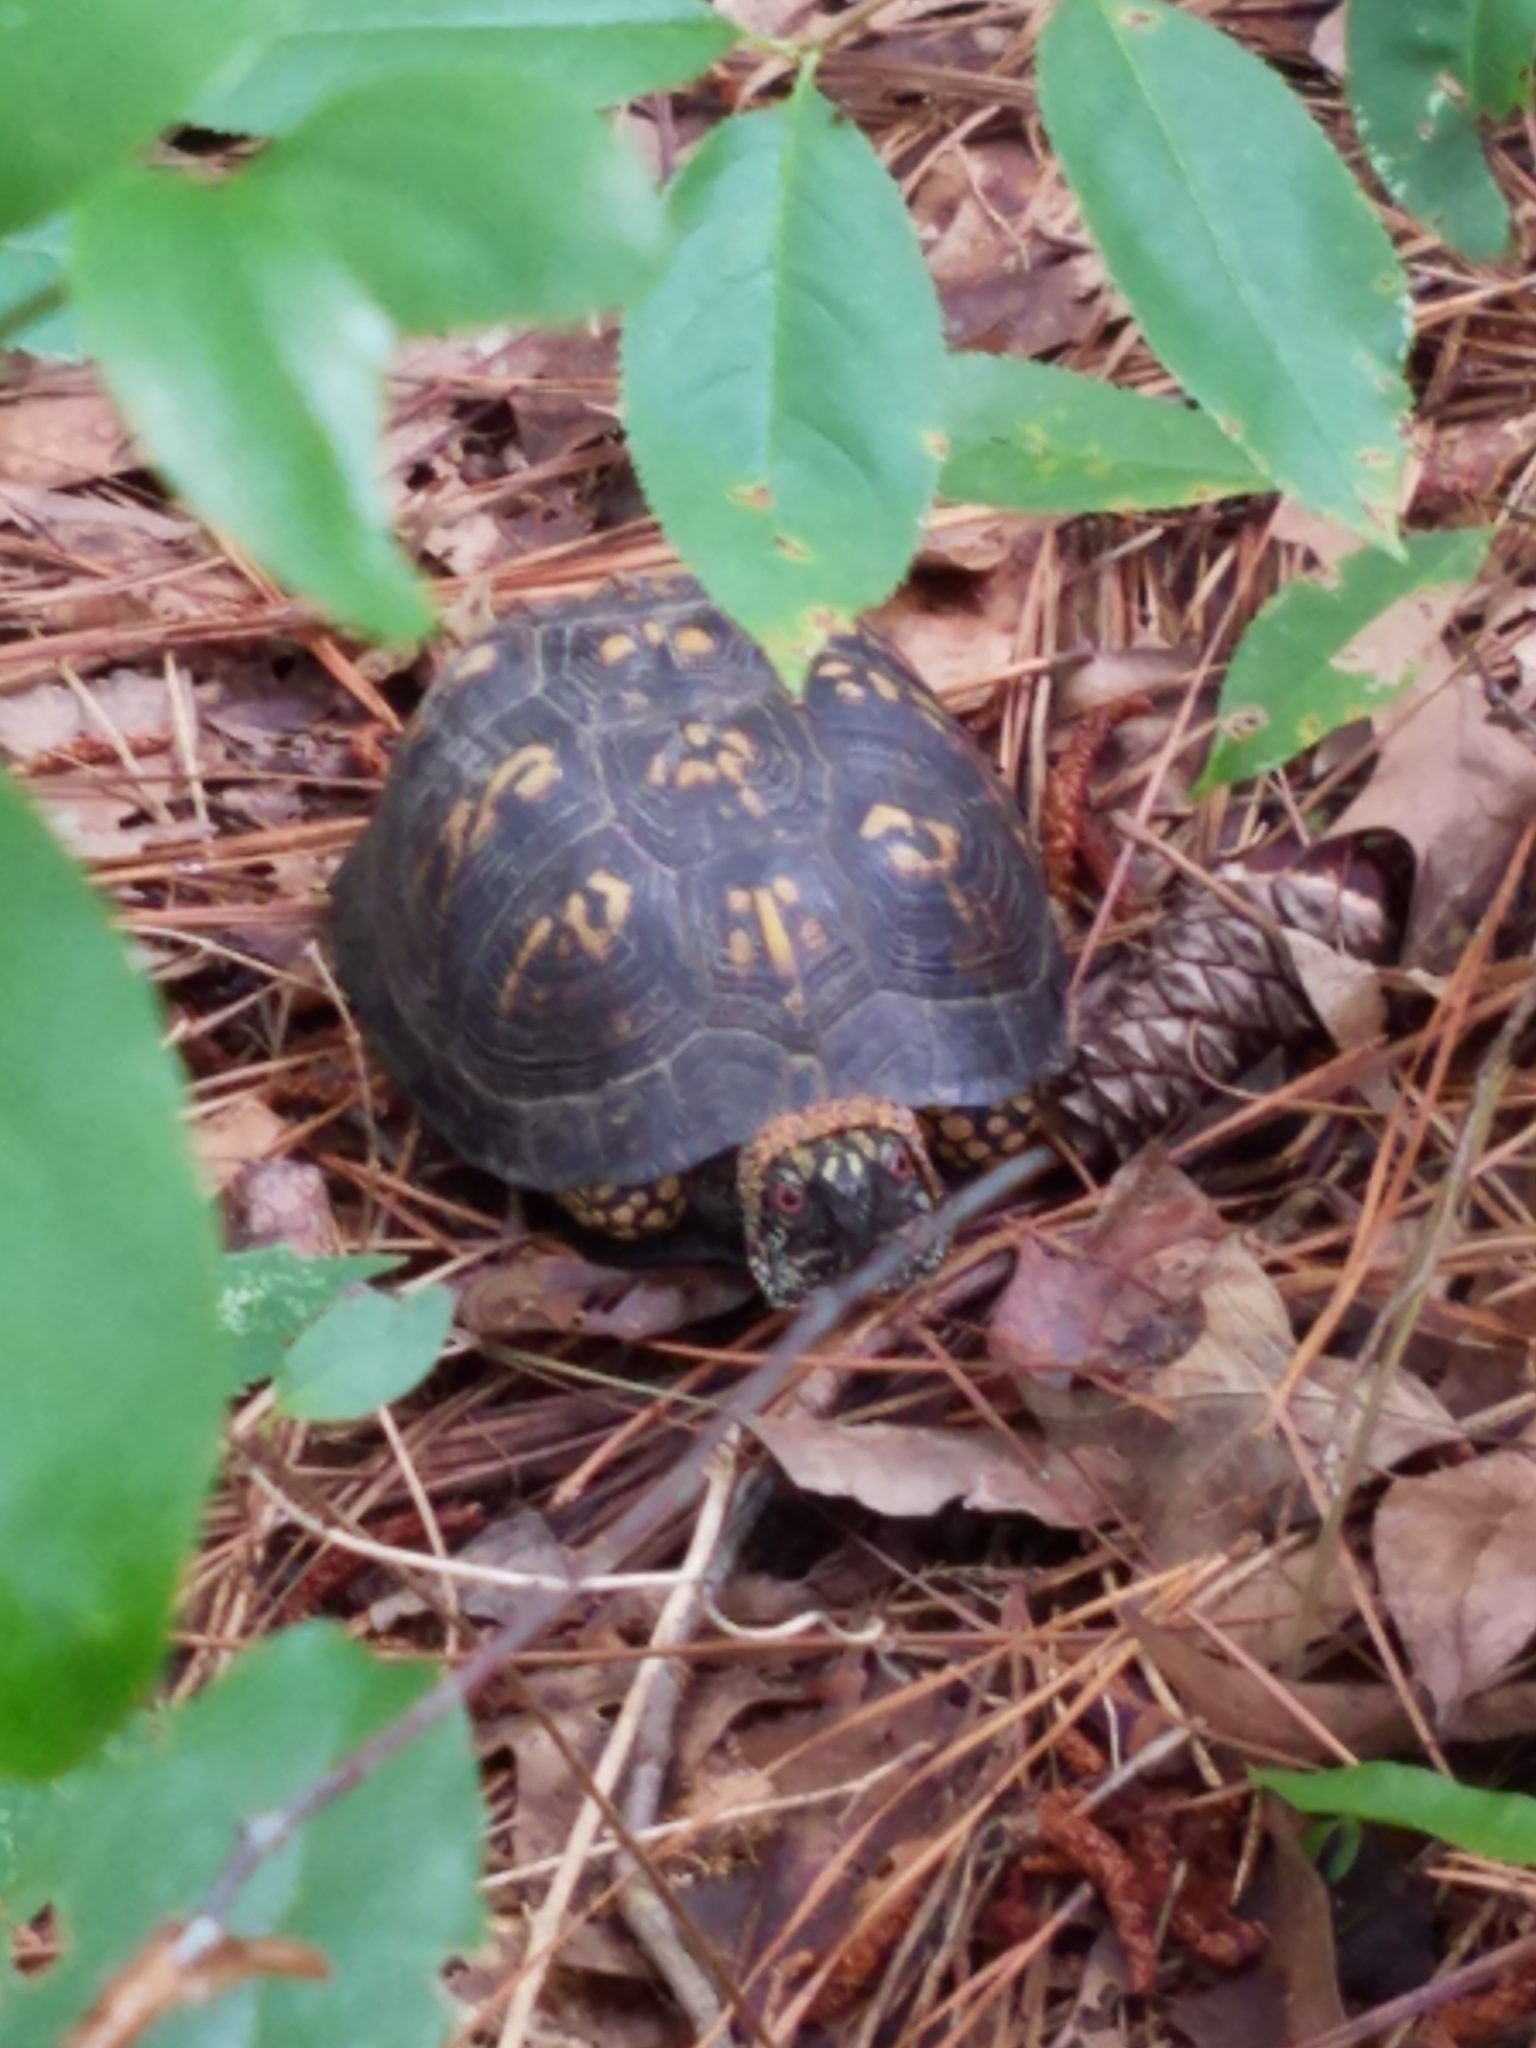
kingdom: Animalia
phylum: Chordata
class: Testudines
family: Emydidae
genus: Terrapene
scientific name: Terrapene carolina
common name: Common box turtle
